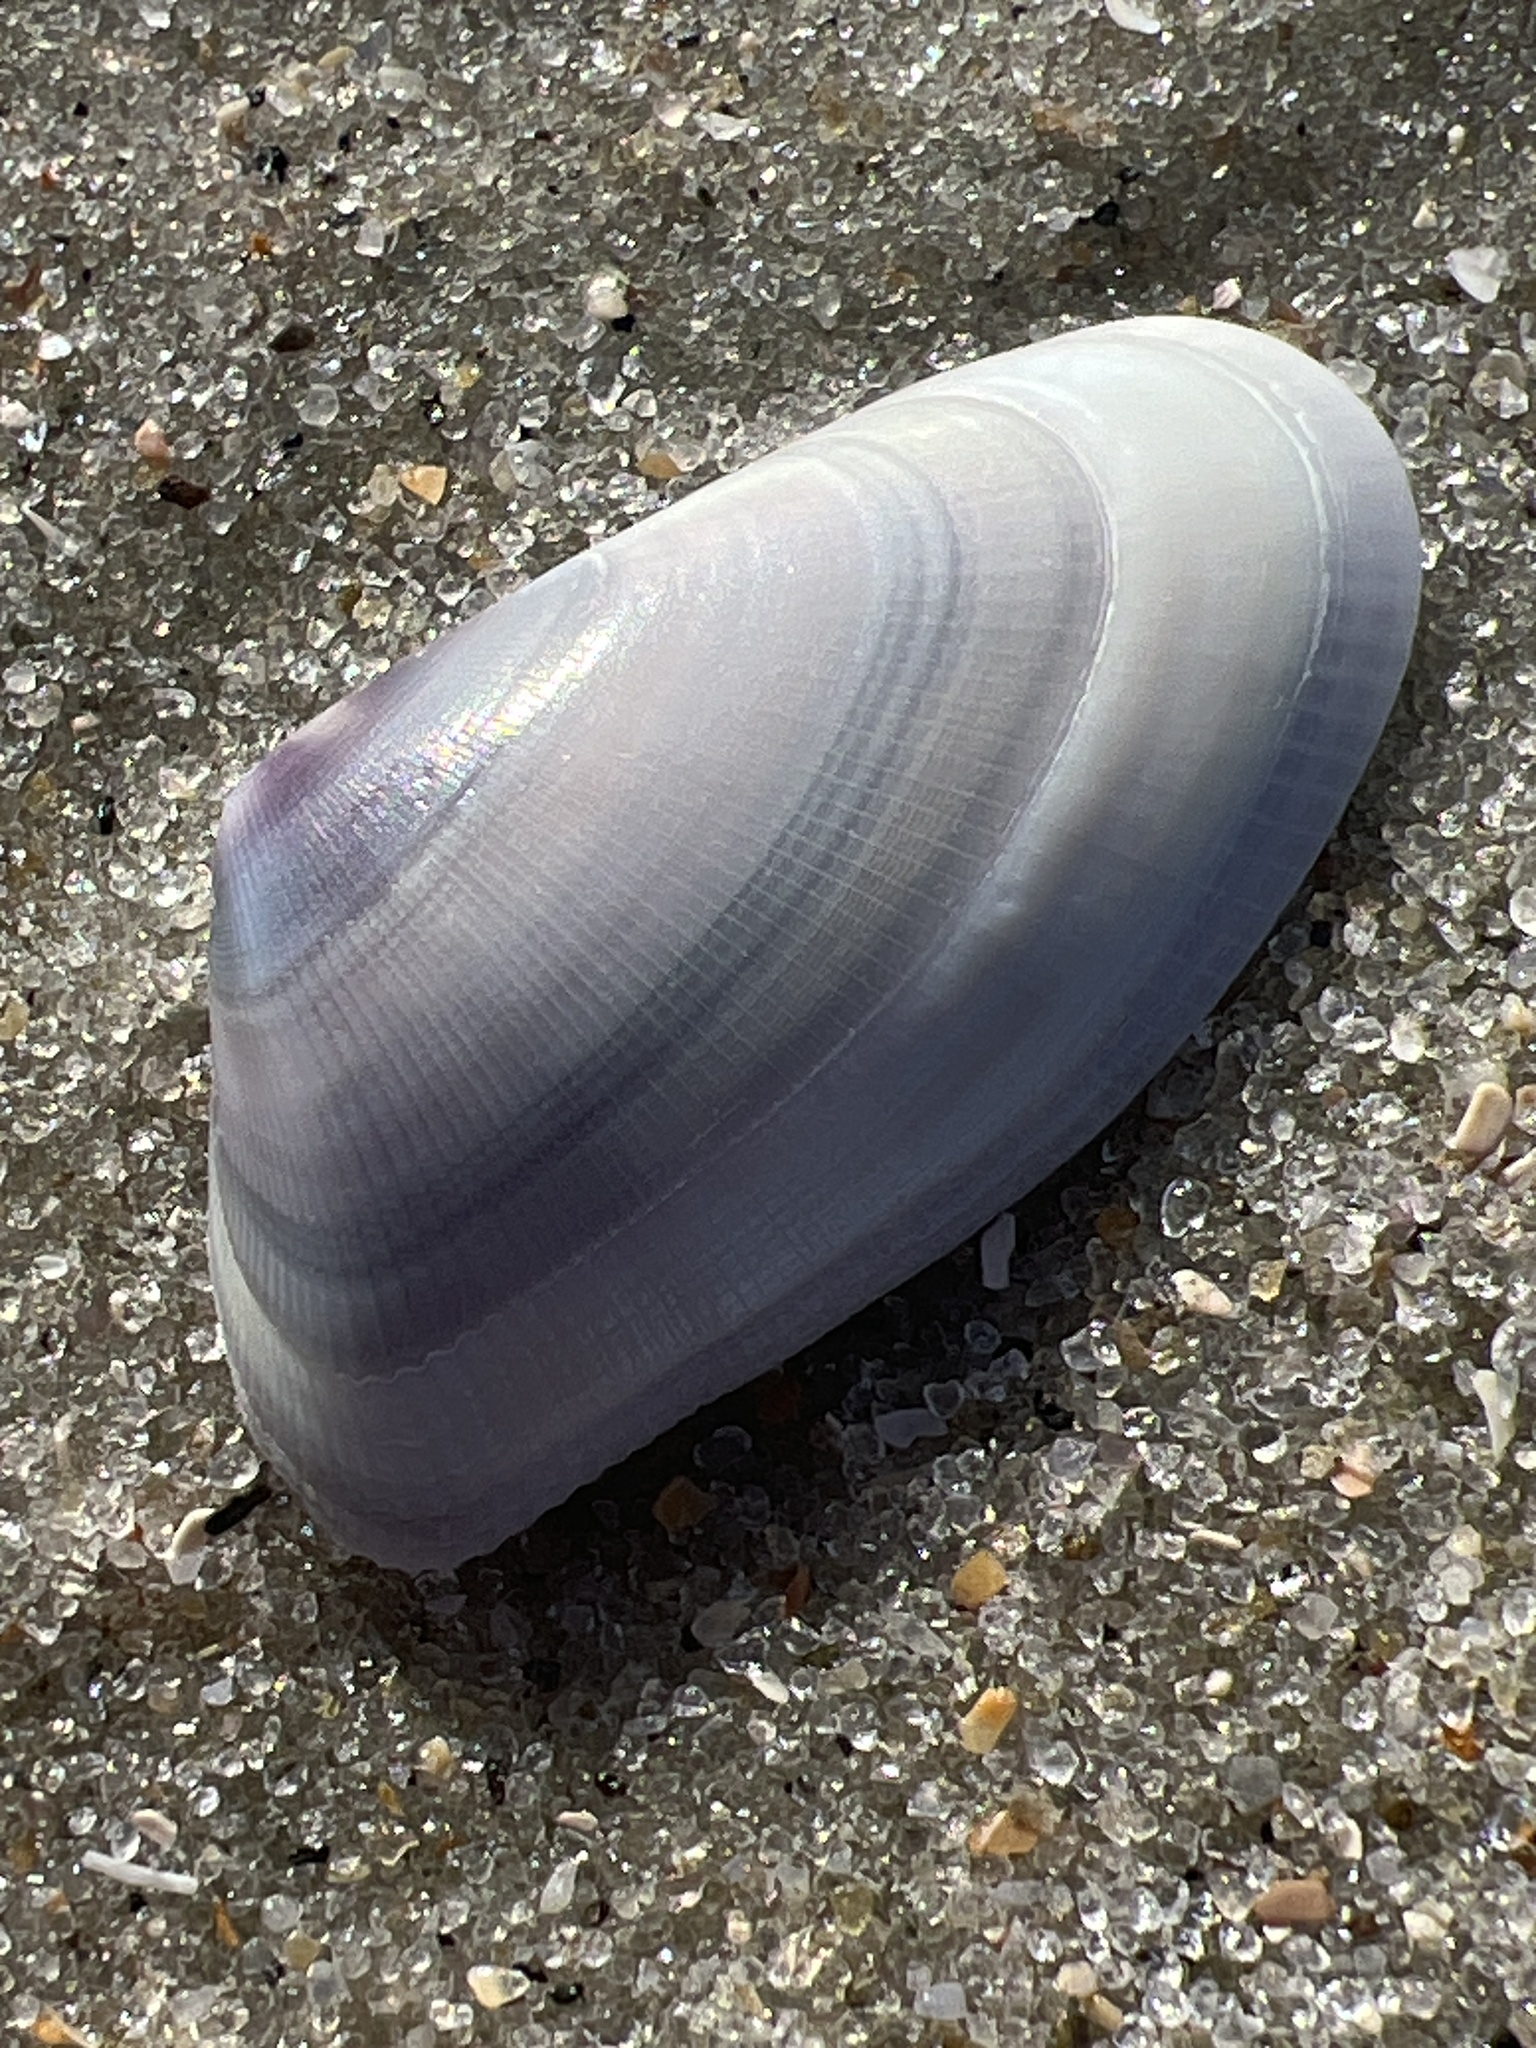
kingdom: Animalia
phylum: Mollusca
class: Bivalvia
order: Cardiida
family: Donacidae
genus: Donax
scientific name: Donax variabilis
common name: Butterfly shell
